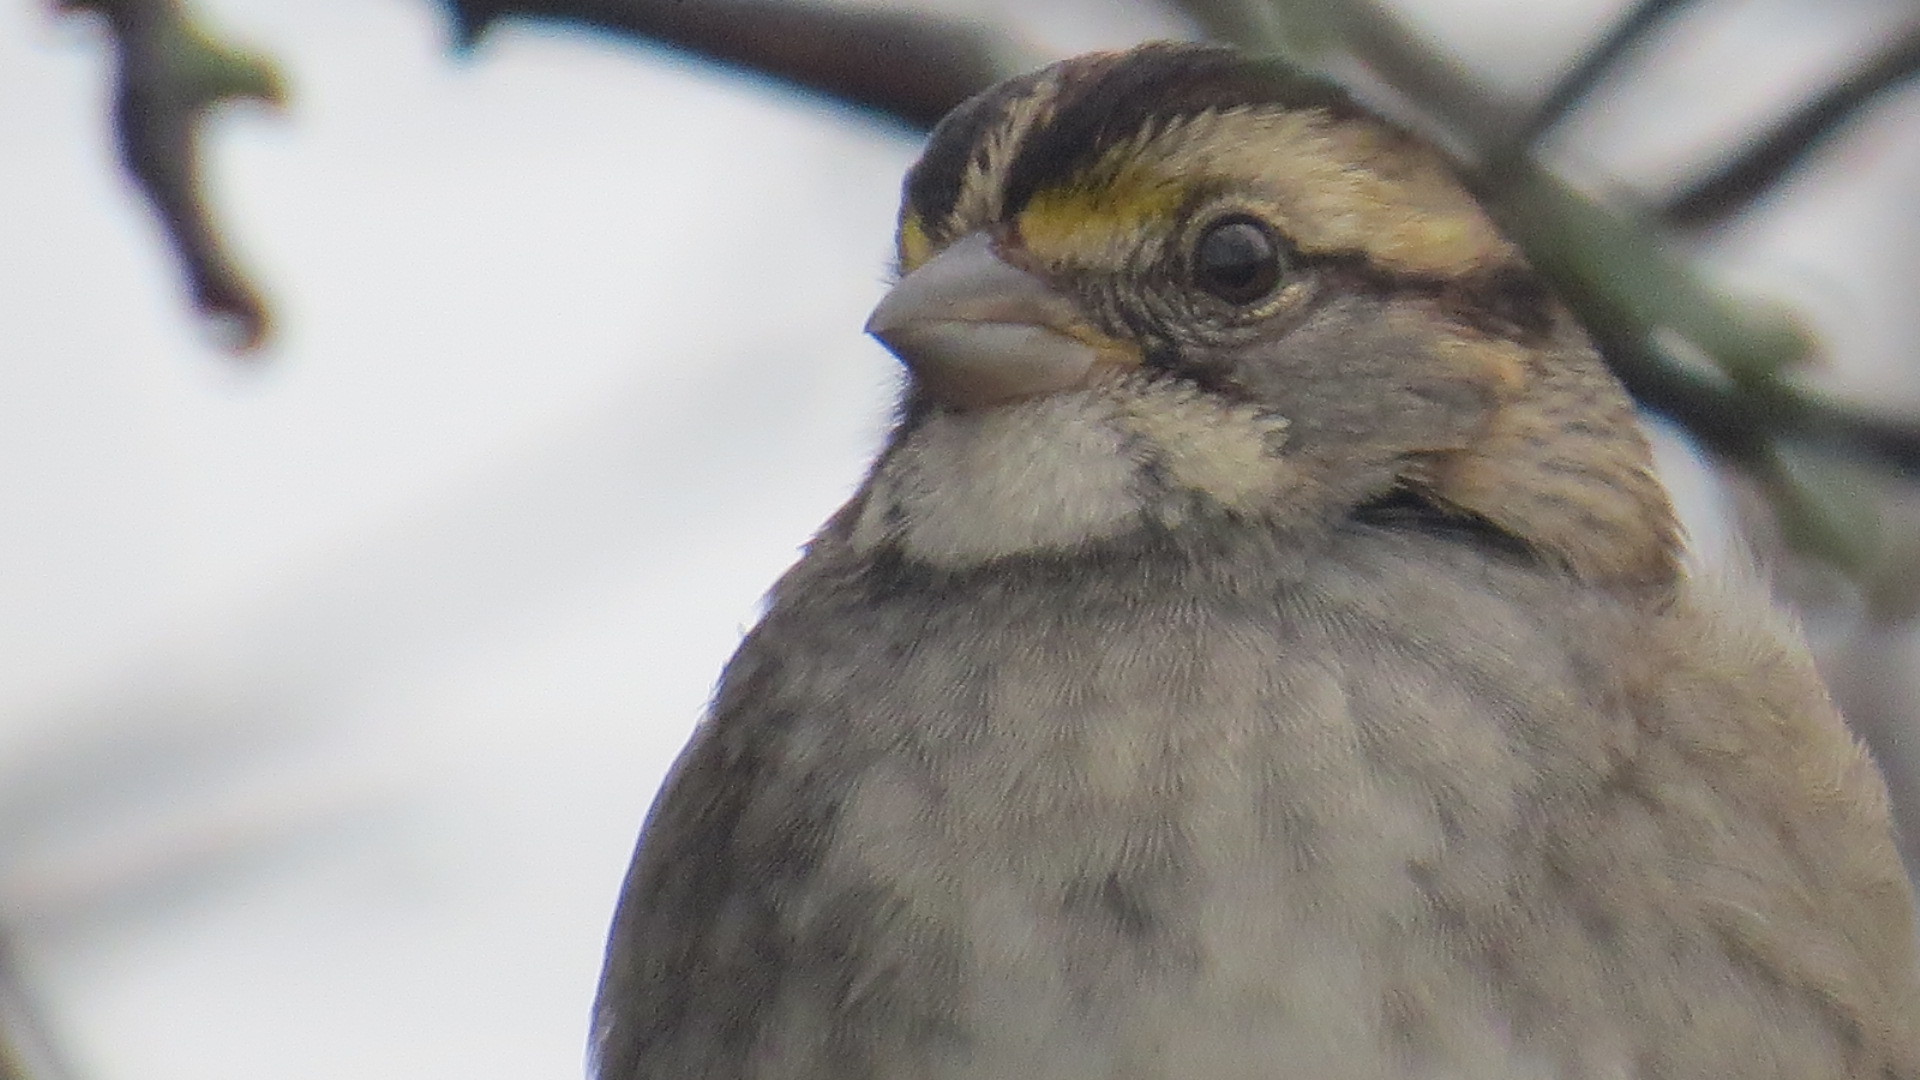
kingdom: Animalia
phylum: Chordata
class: Aves
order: Passeriformes
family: Passerellidae
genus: Zonotrichia
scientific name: Zonotrichia albicollis
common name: White-throated sparrow
